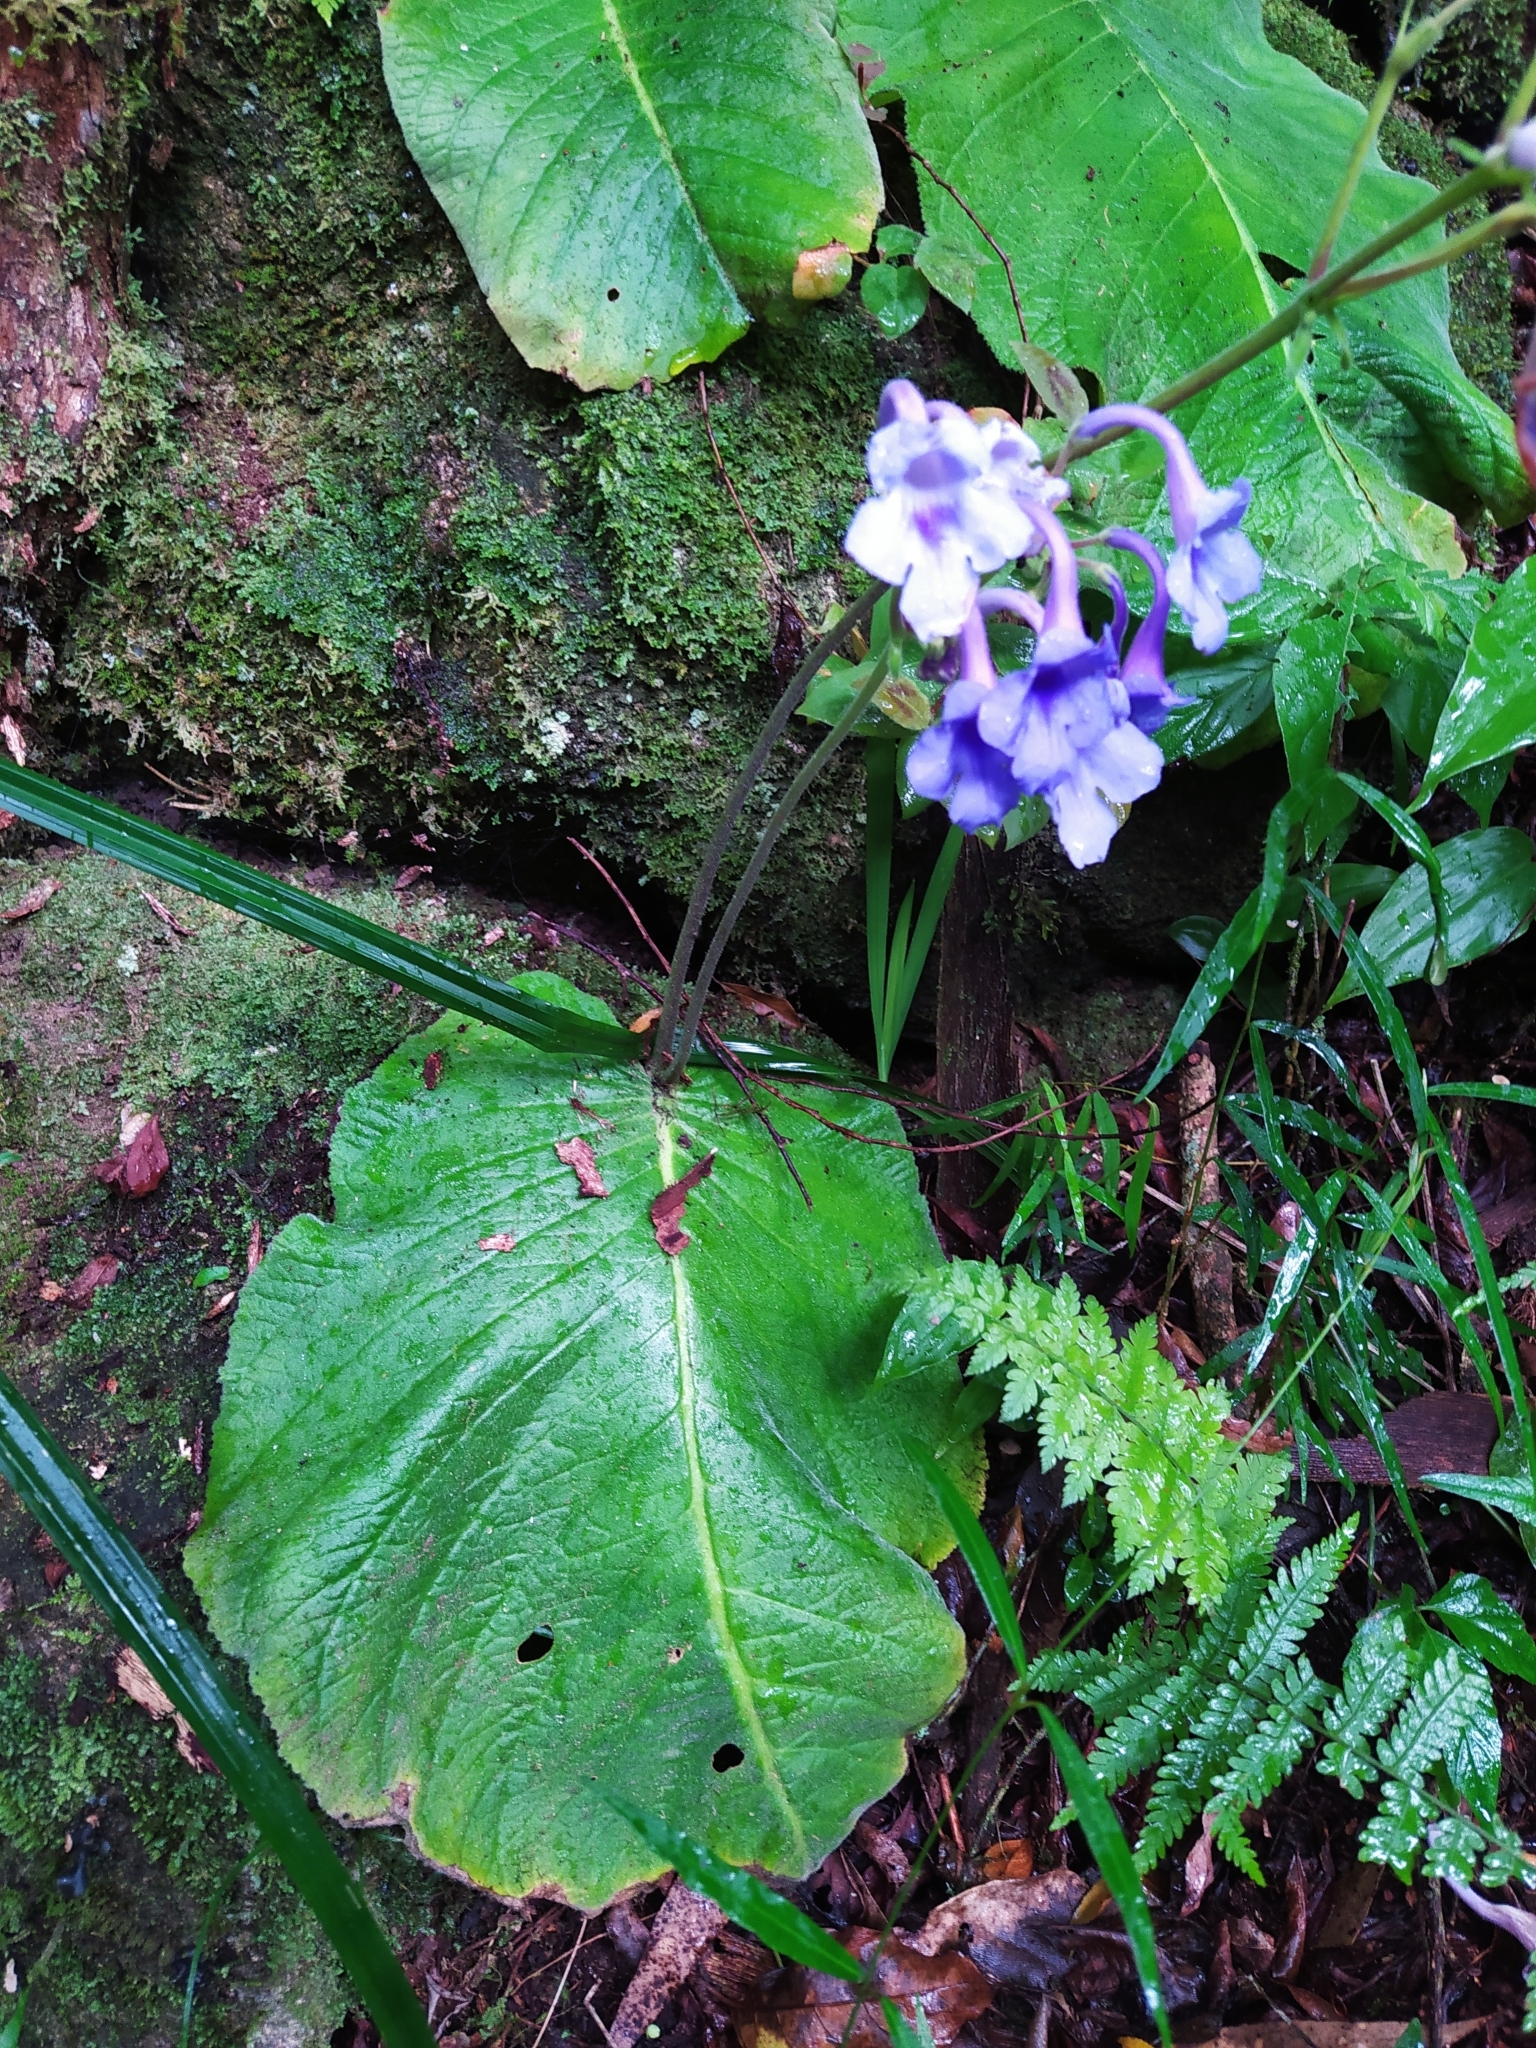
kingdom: Plantae
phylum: Tracheophyta
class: Magnoliopsida
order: Lamiales
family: Gesneriaceae
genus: Streptocarpus
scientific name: Streptocarpus eylesii
